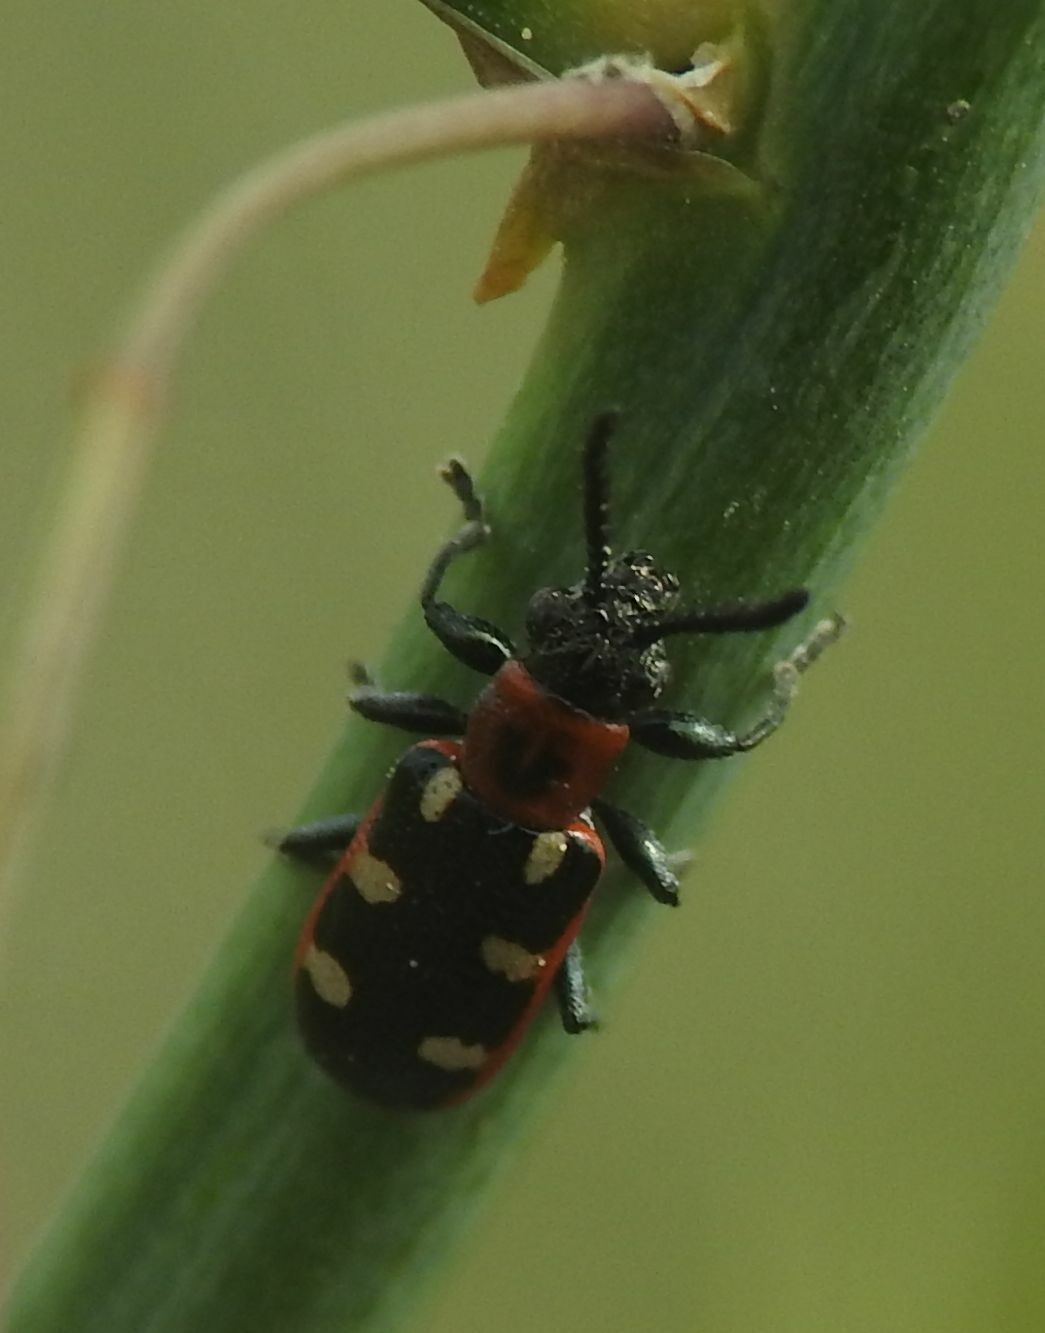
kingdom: Animalia
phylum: Arthropoda
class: Insecta
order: Coleoptera
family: Chrysomelidae
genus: Crioceris
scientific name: Crioceris asparagi
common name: Asparagus beetle
